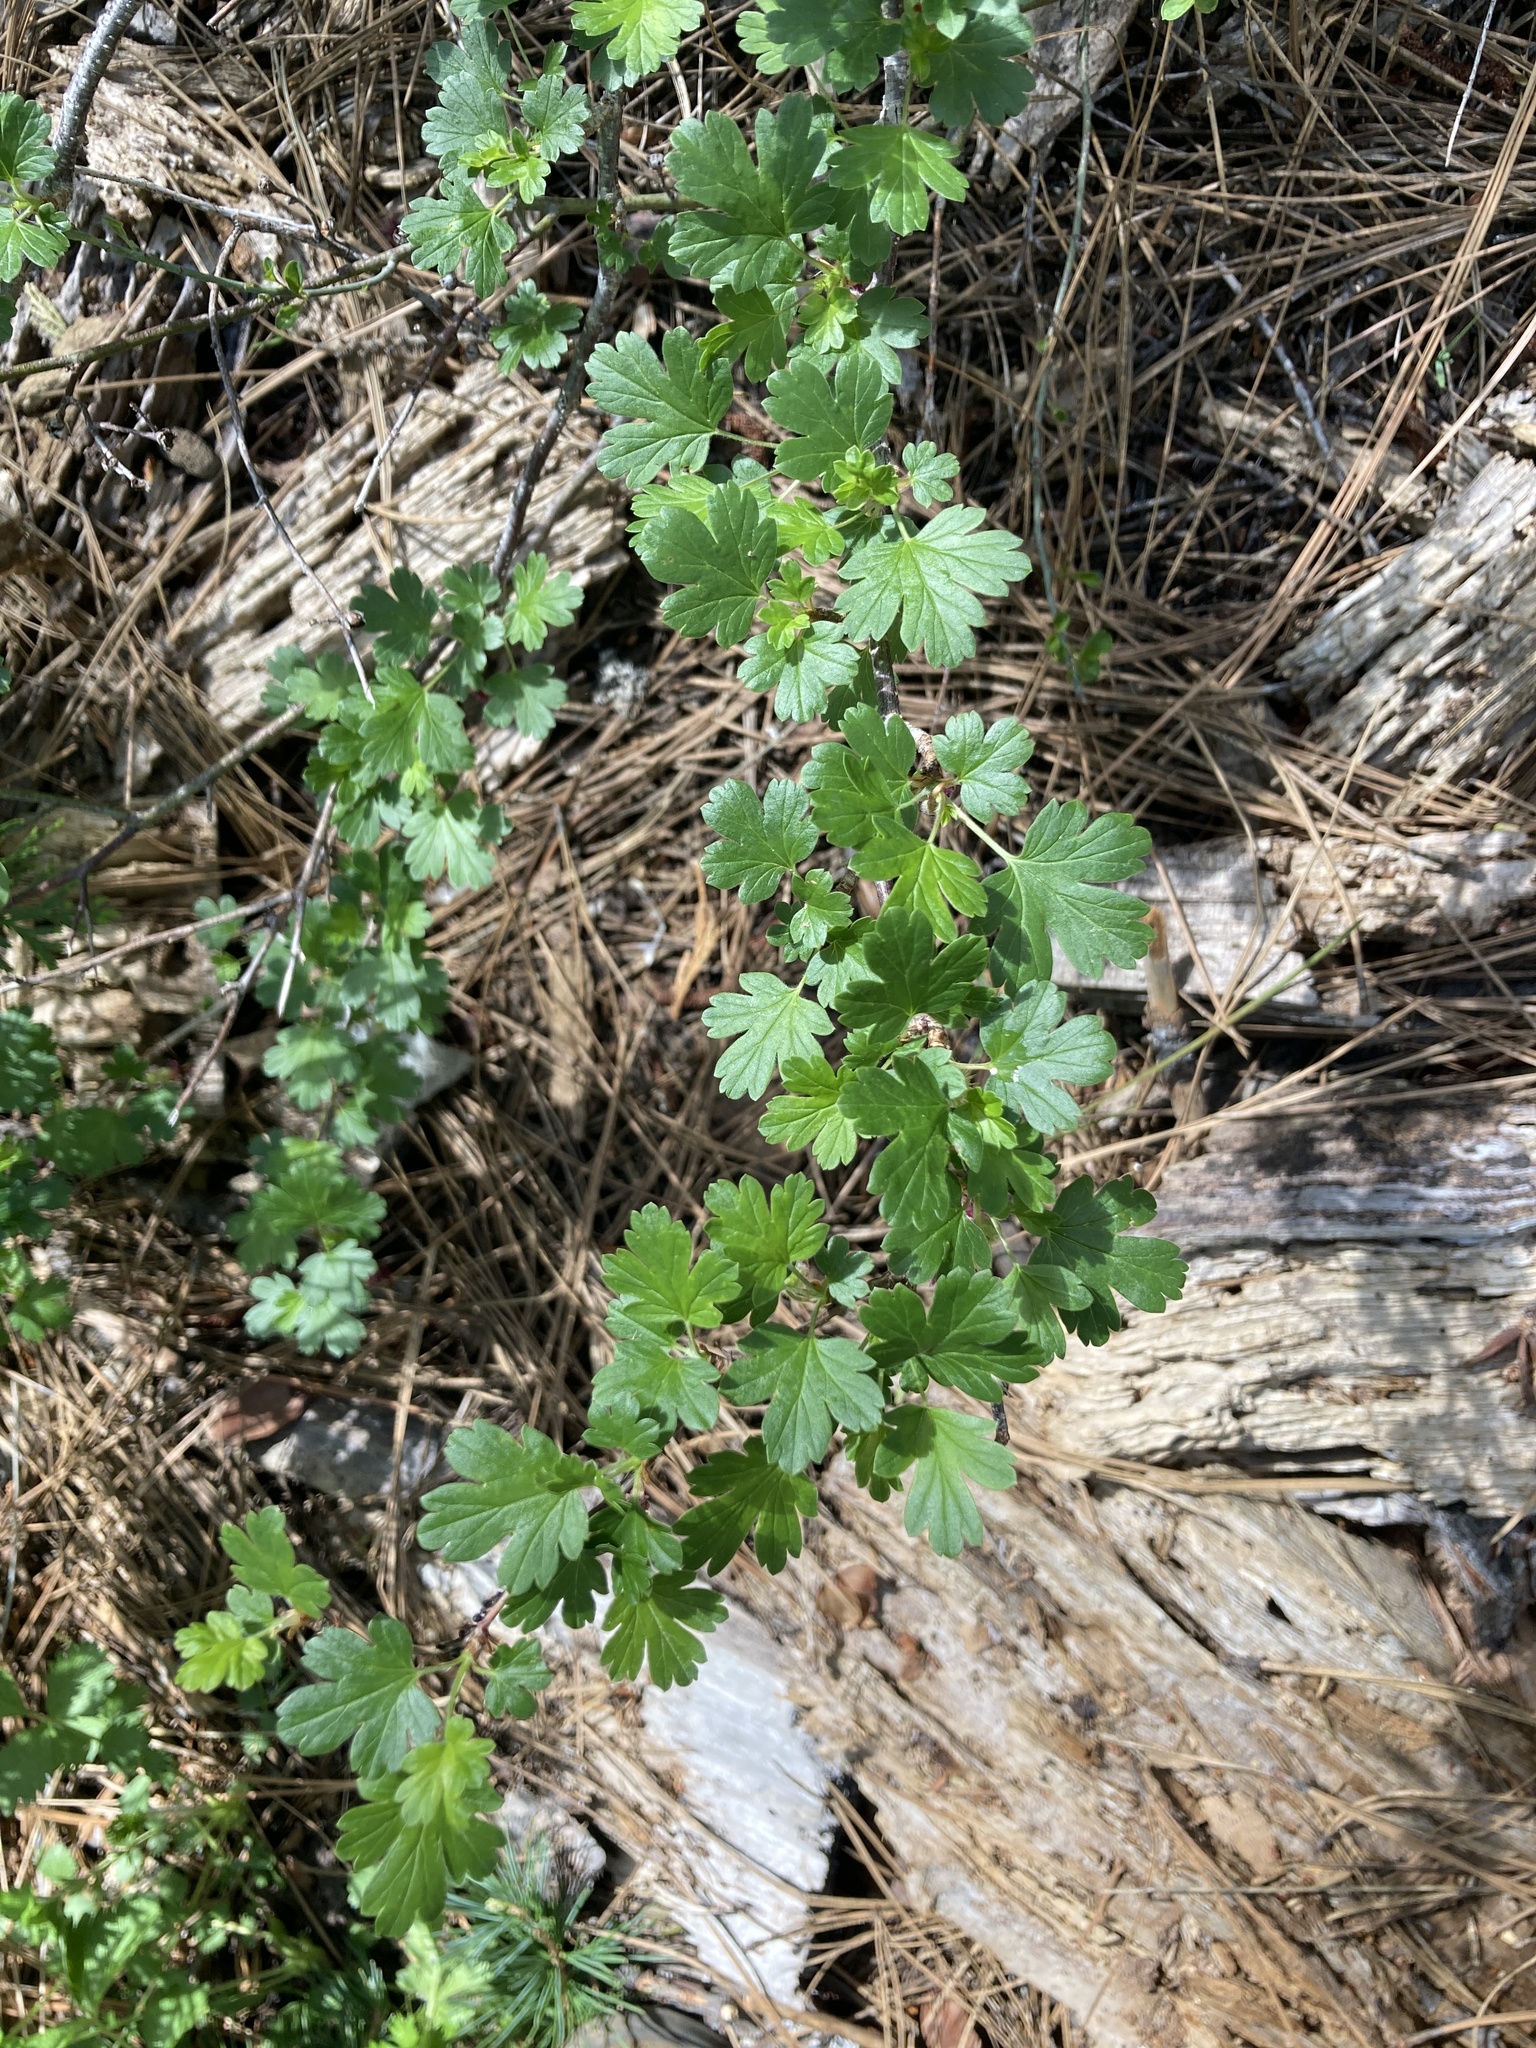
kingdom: Plantae
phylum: Tracheophyta
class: Magnoliopsida
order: Saxifragales
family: Grossulariaceae
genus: Ribes
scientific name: Ribes roezlii
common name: Sierra gooseberry
